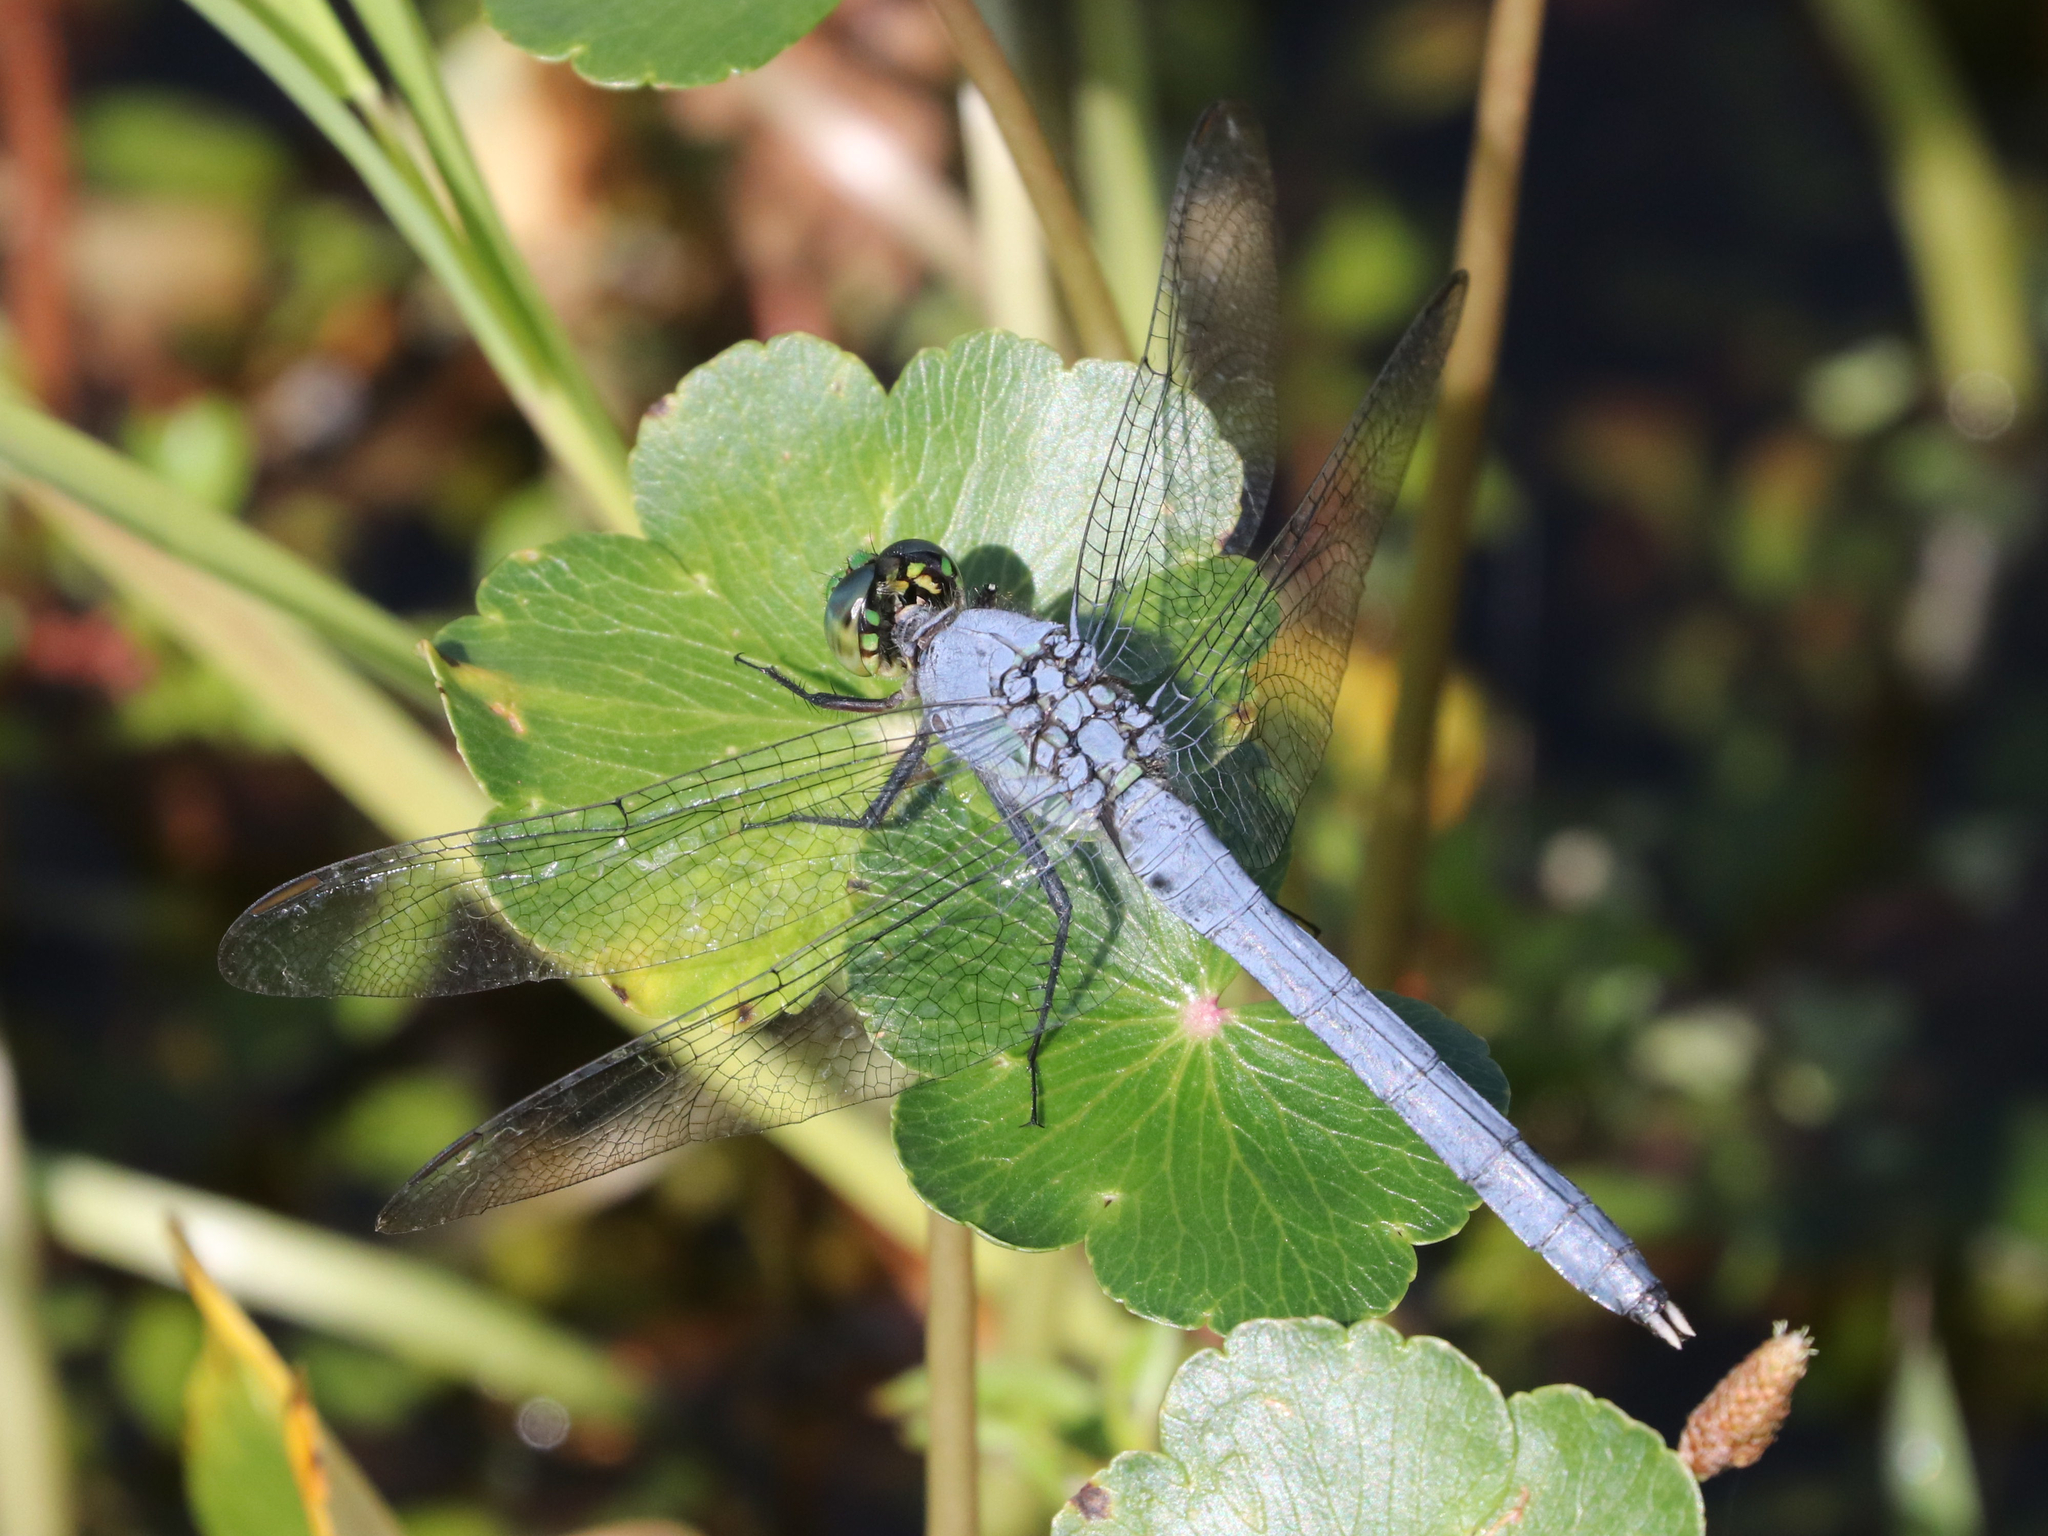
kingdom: Animalia
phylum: Arthropoda
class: Insecta
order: Odonata
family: Libellulidae
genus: Erythemis
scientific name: Erythemis simplicicollis
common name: Eastern pondhawk
